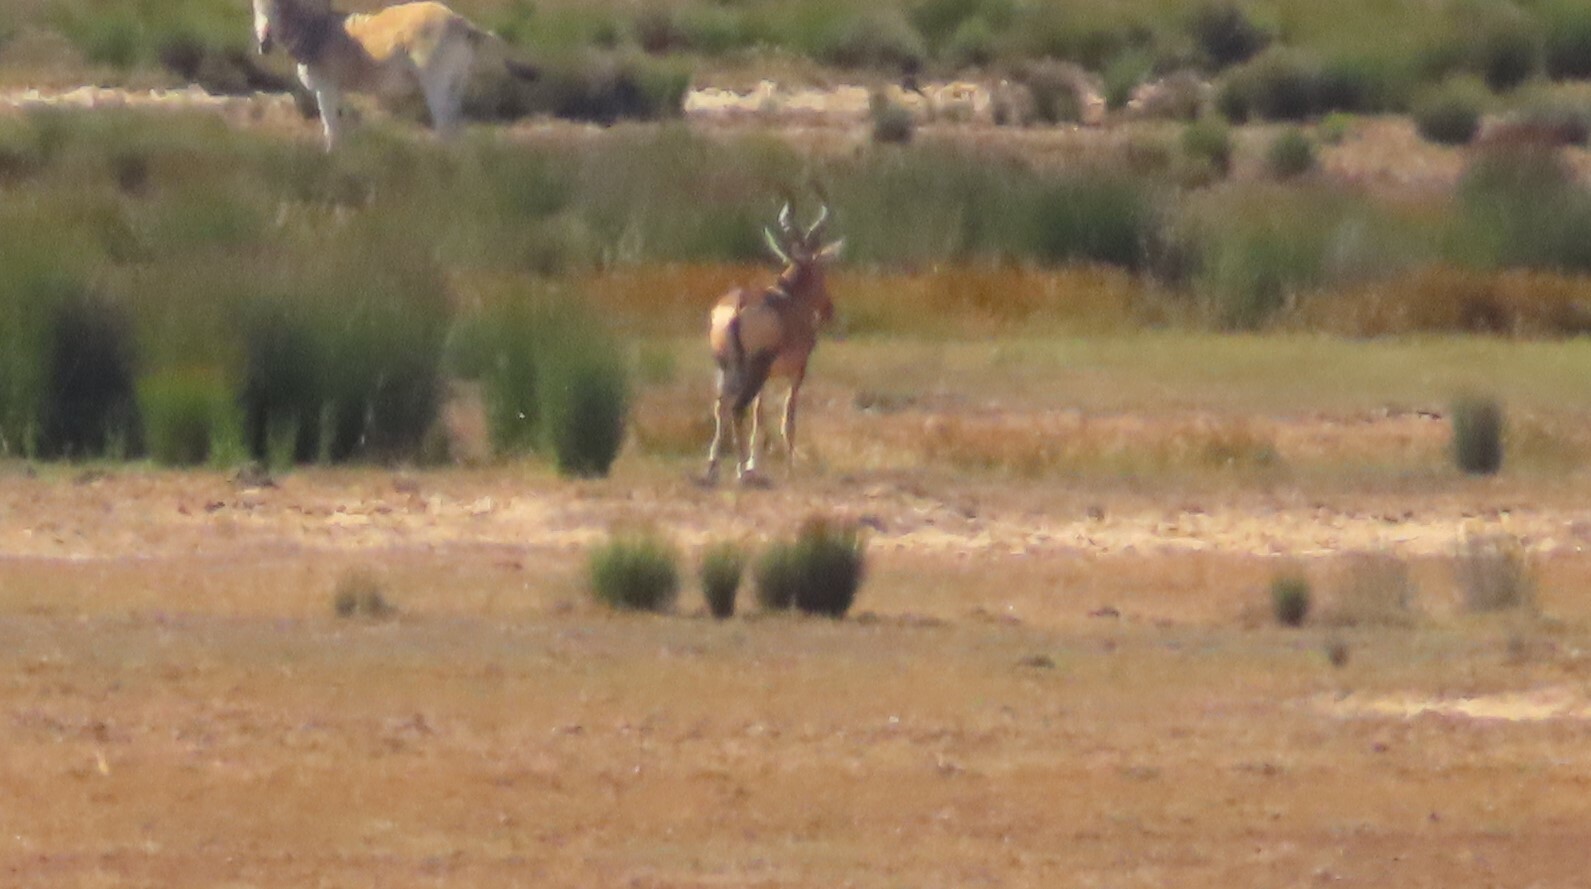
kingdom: Animalia
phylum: Chordata
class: Mammalia
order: Artiodactyla
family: Bovidae
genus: Alcelaphus
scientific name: Alcelaphus caama
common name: Red hartebeest
